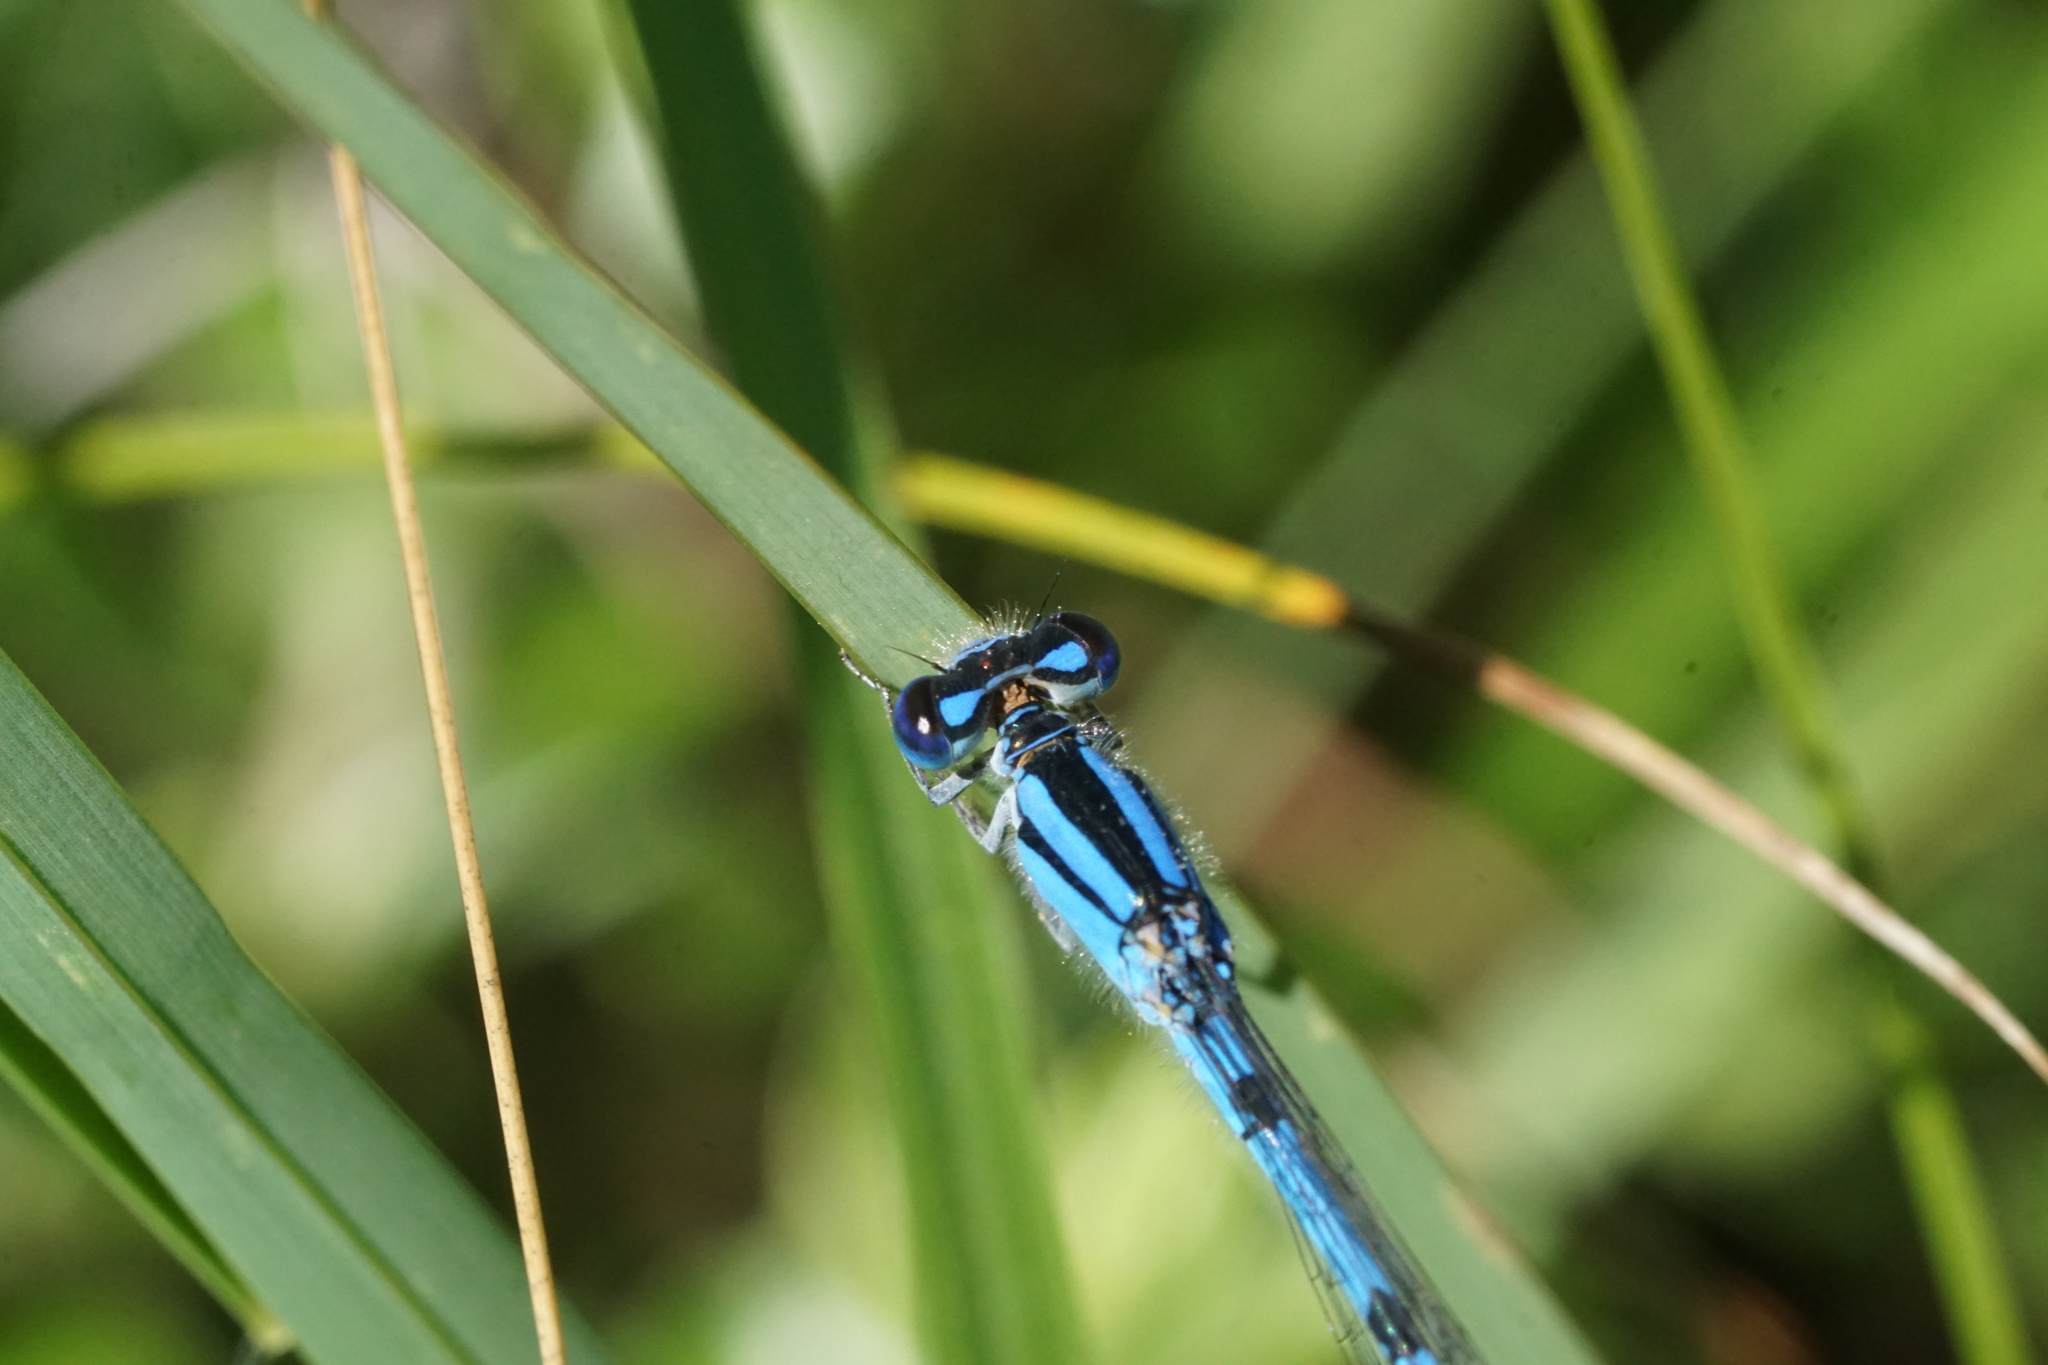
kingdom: Animalia
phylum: Arthropoda
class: Insecta
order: Odonata
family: Coenagrionidae
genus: Enallagma
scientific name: Enallagma civile
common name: Damselfly
